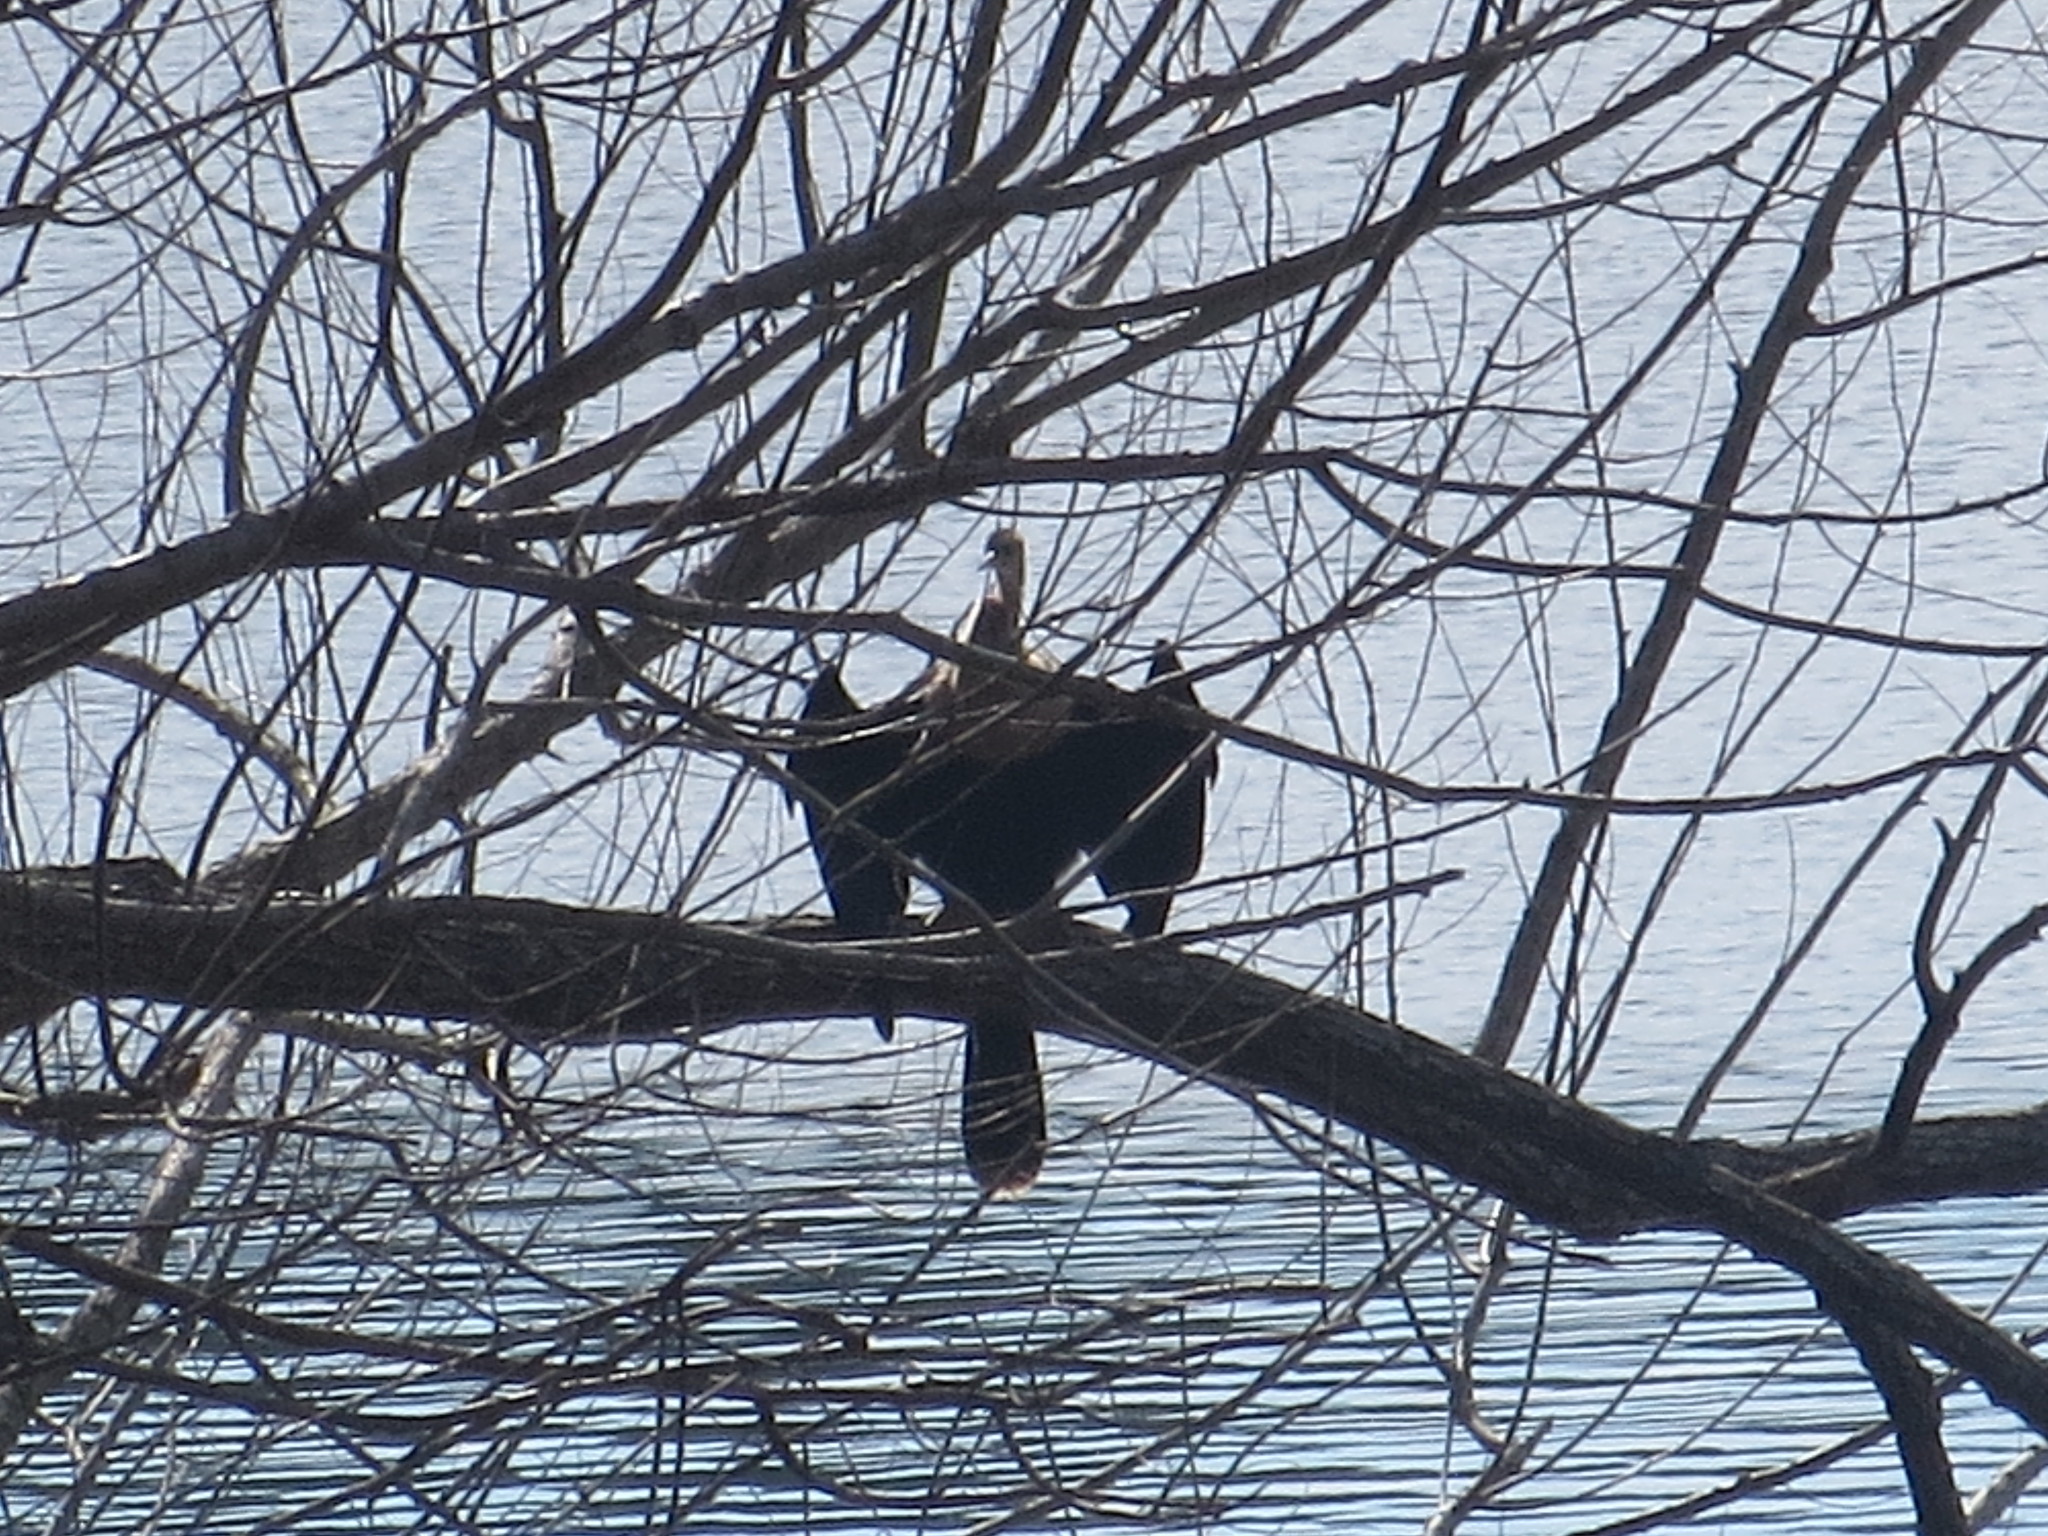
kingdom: Animalia
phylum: Chordata
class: Aves
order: Suliformes
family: Anhingidae
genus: Anhinga
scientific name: Anhinga anhinga
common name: Anhinga
